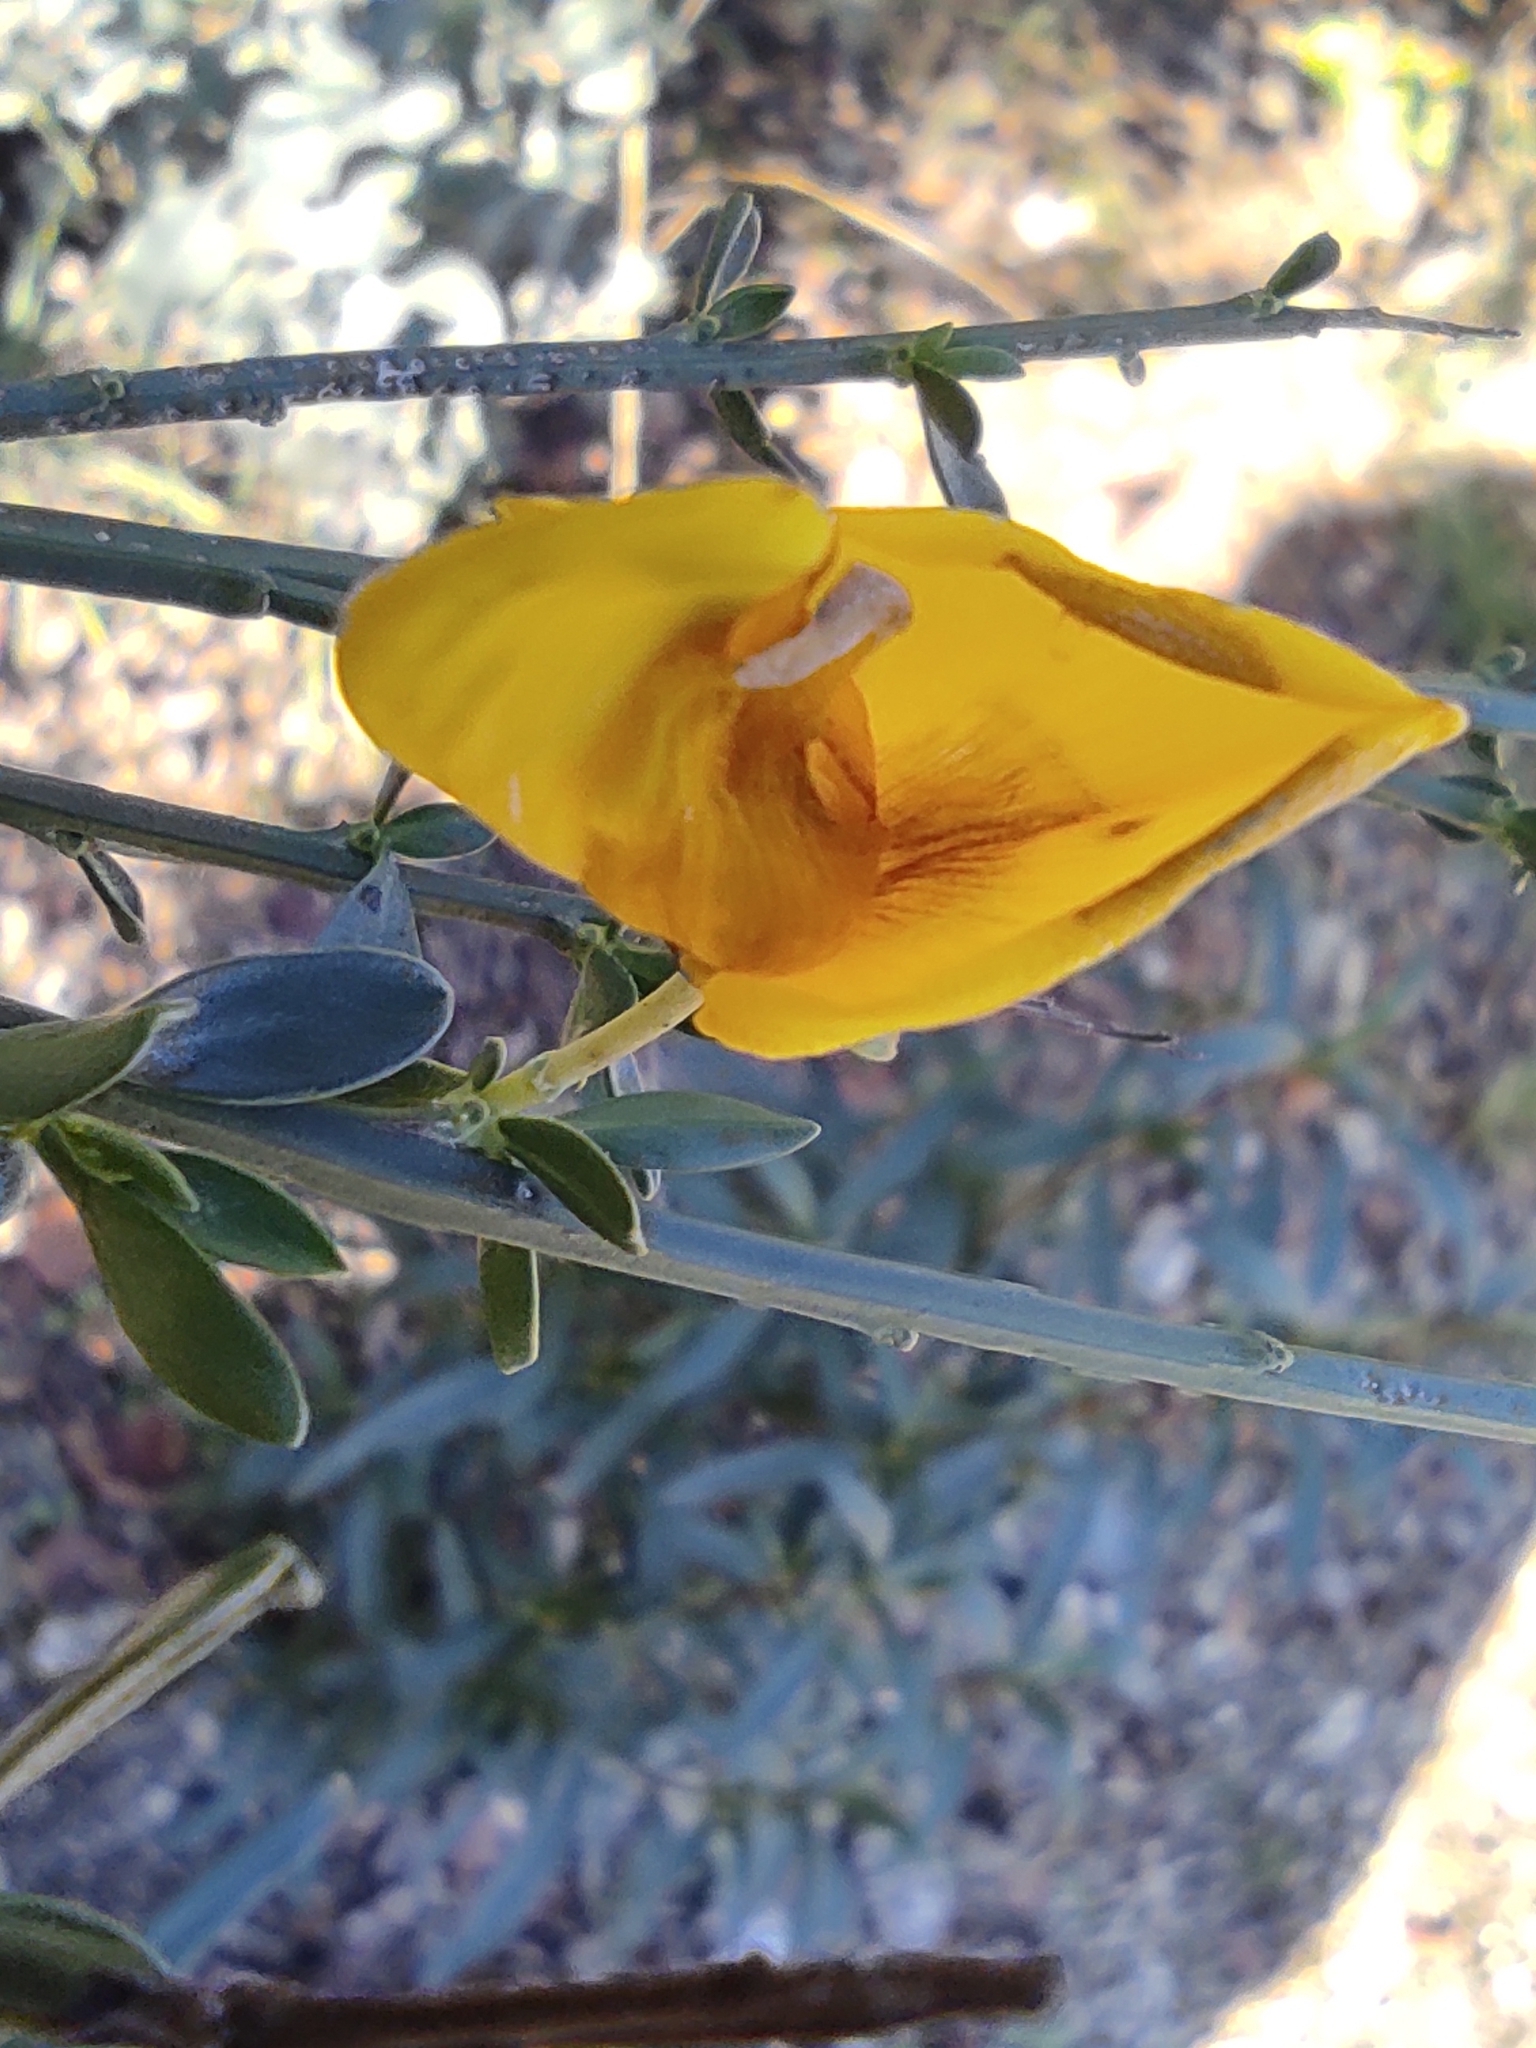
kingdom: Plantae
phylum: Tracheophyta
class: Magnoliopsida
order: Fabales
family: Fabaceae
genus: Cytisus
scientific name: Cytisus scoparius
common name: Scotch broom
